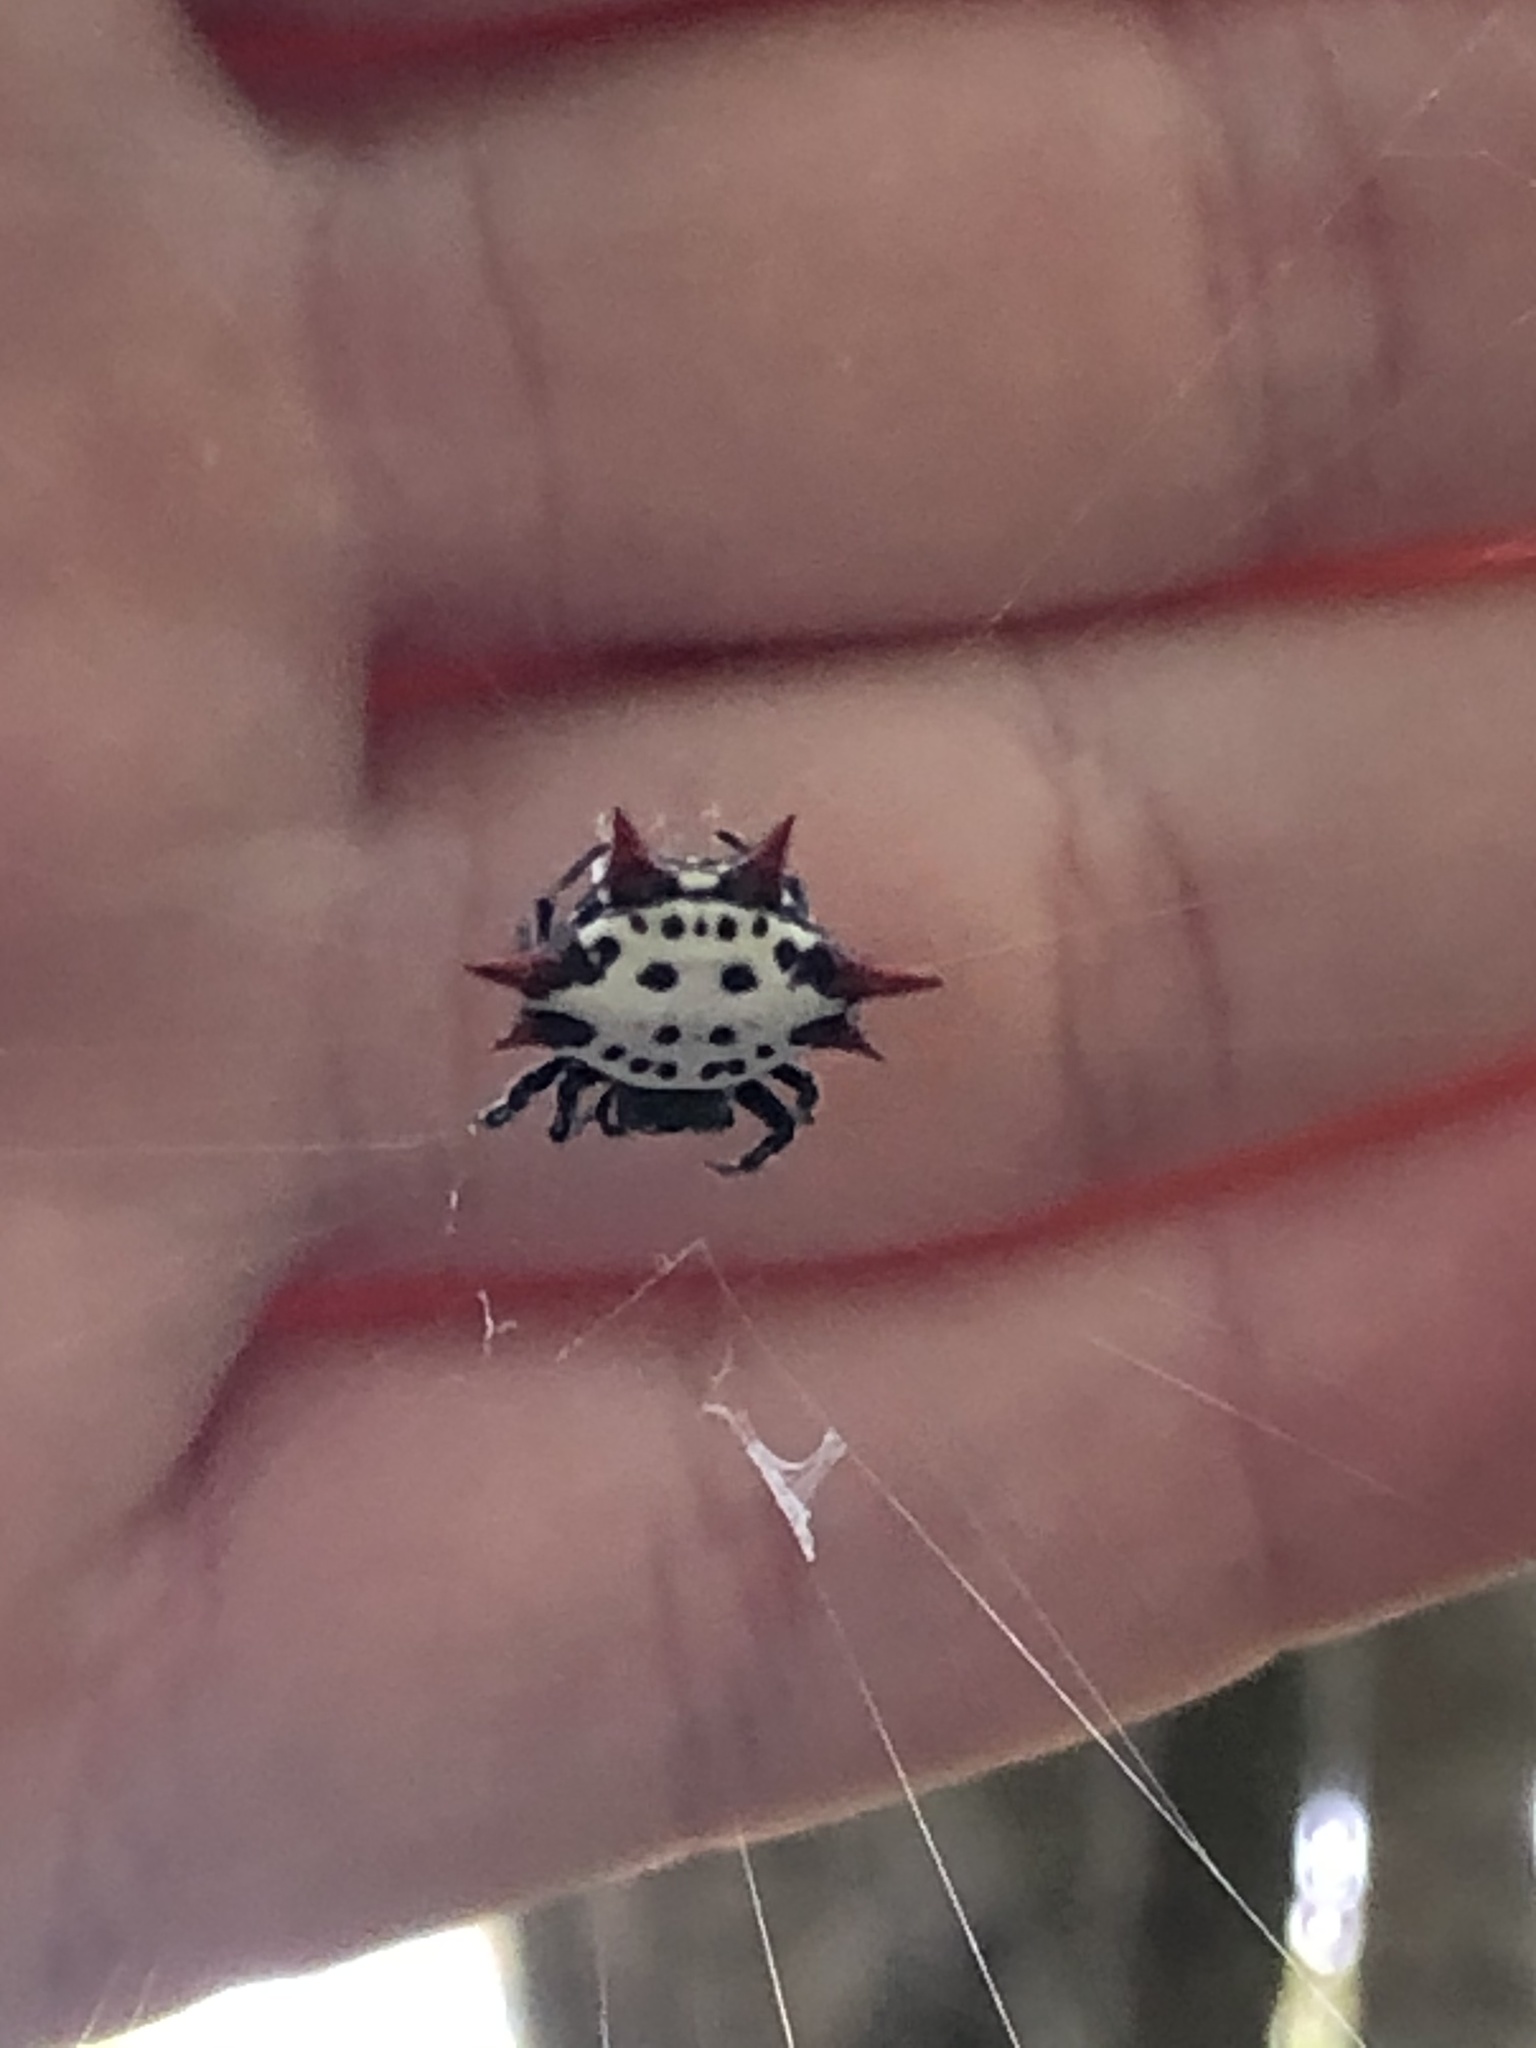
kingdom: Animalia
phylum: Arthropoda
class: Arachnida
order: Araneae
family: Araneidae
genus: Gasteracantha
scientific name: Gasteracantha cancriformis
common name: Orb weavers
